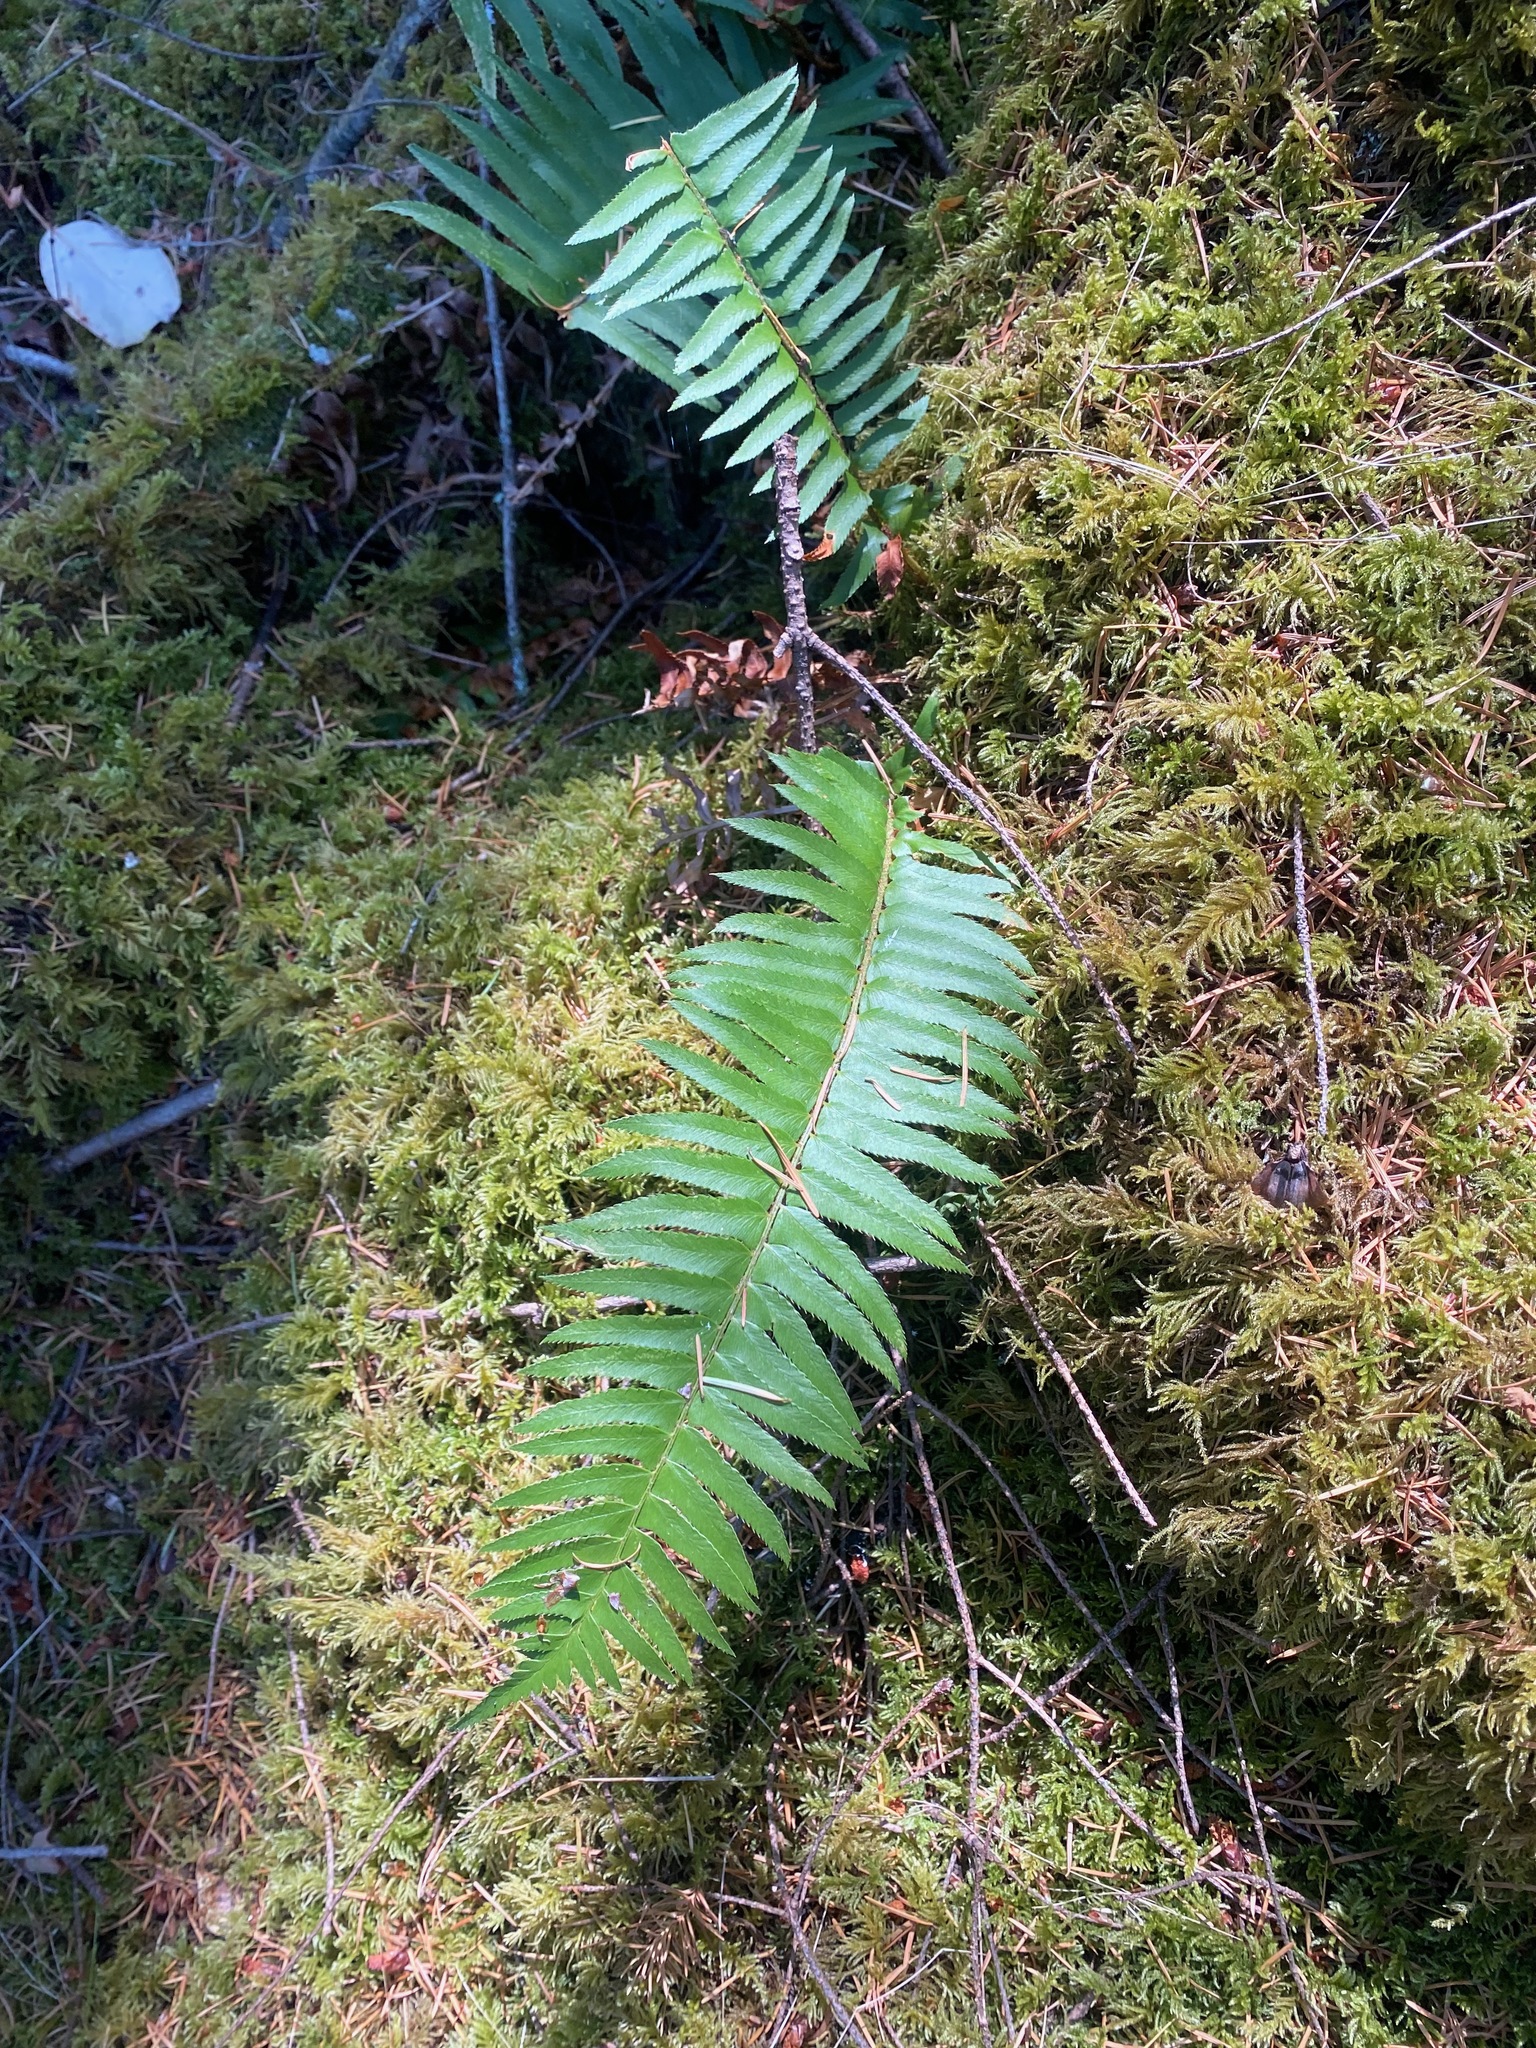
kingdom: Plantae
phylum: Tracheophyta
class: Polypodiopsida
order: Polypodiales
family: Dryopteridaceae
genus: Polystichum
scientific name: Polystichum munitum
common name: Western sword-fern
